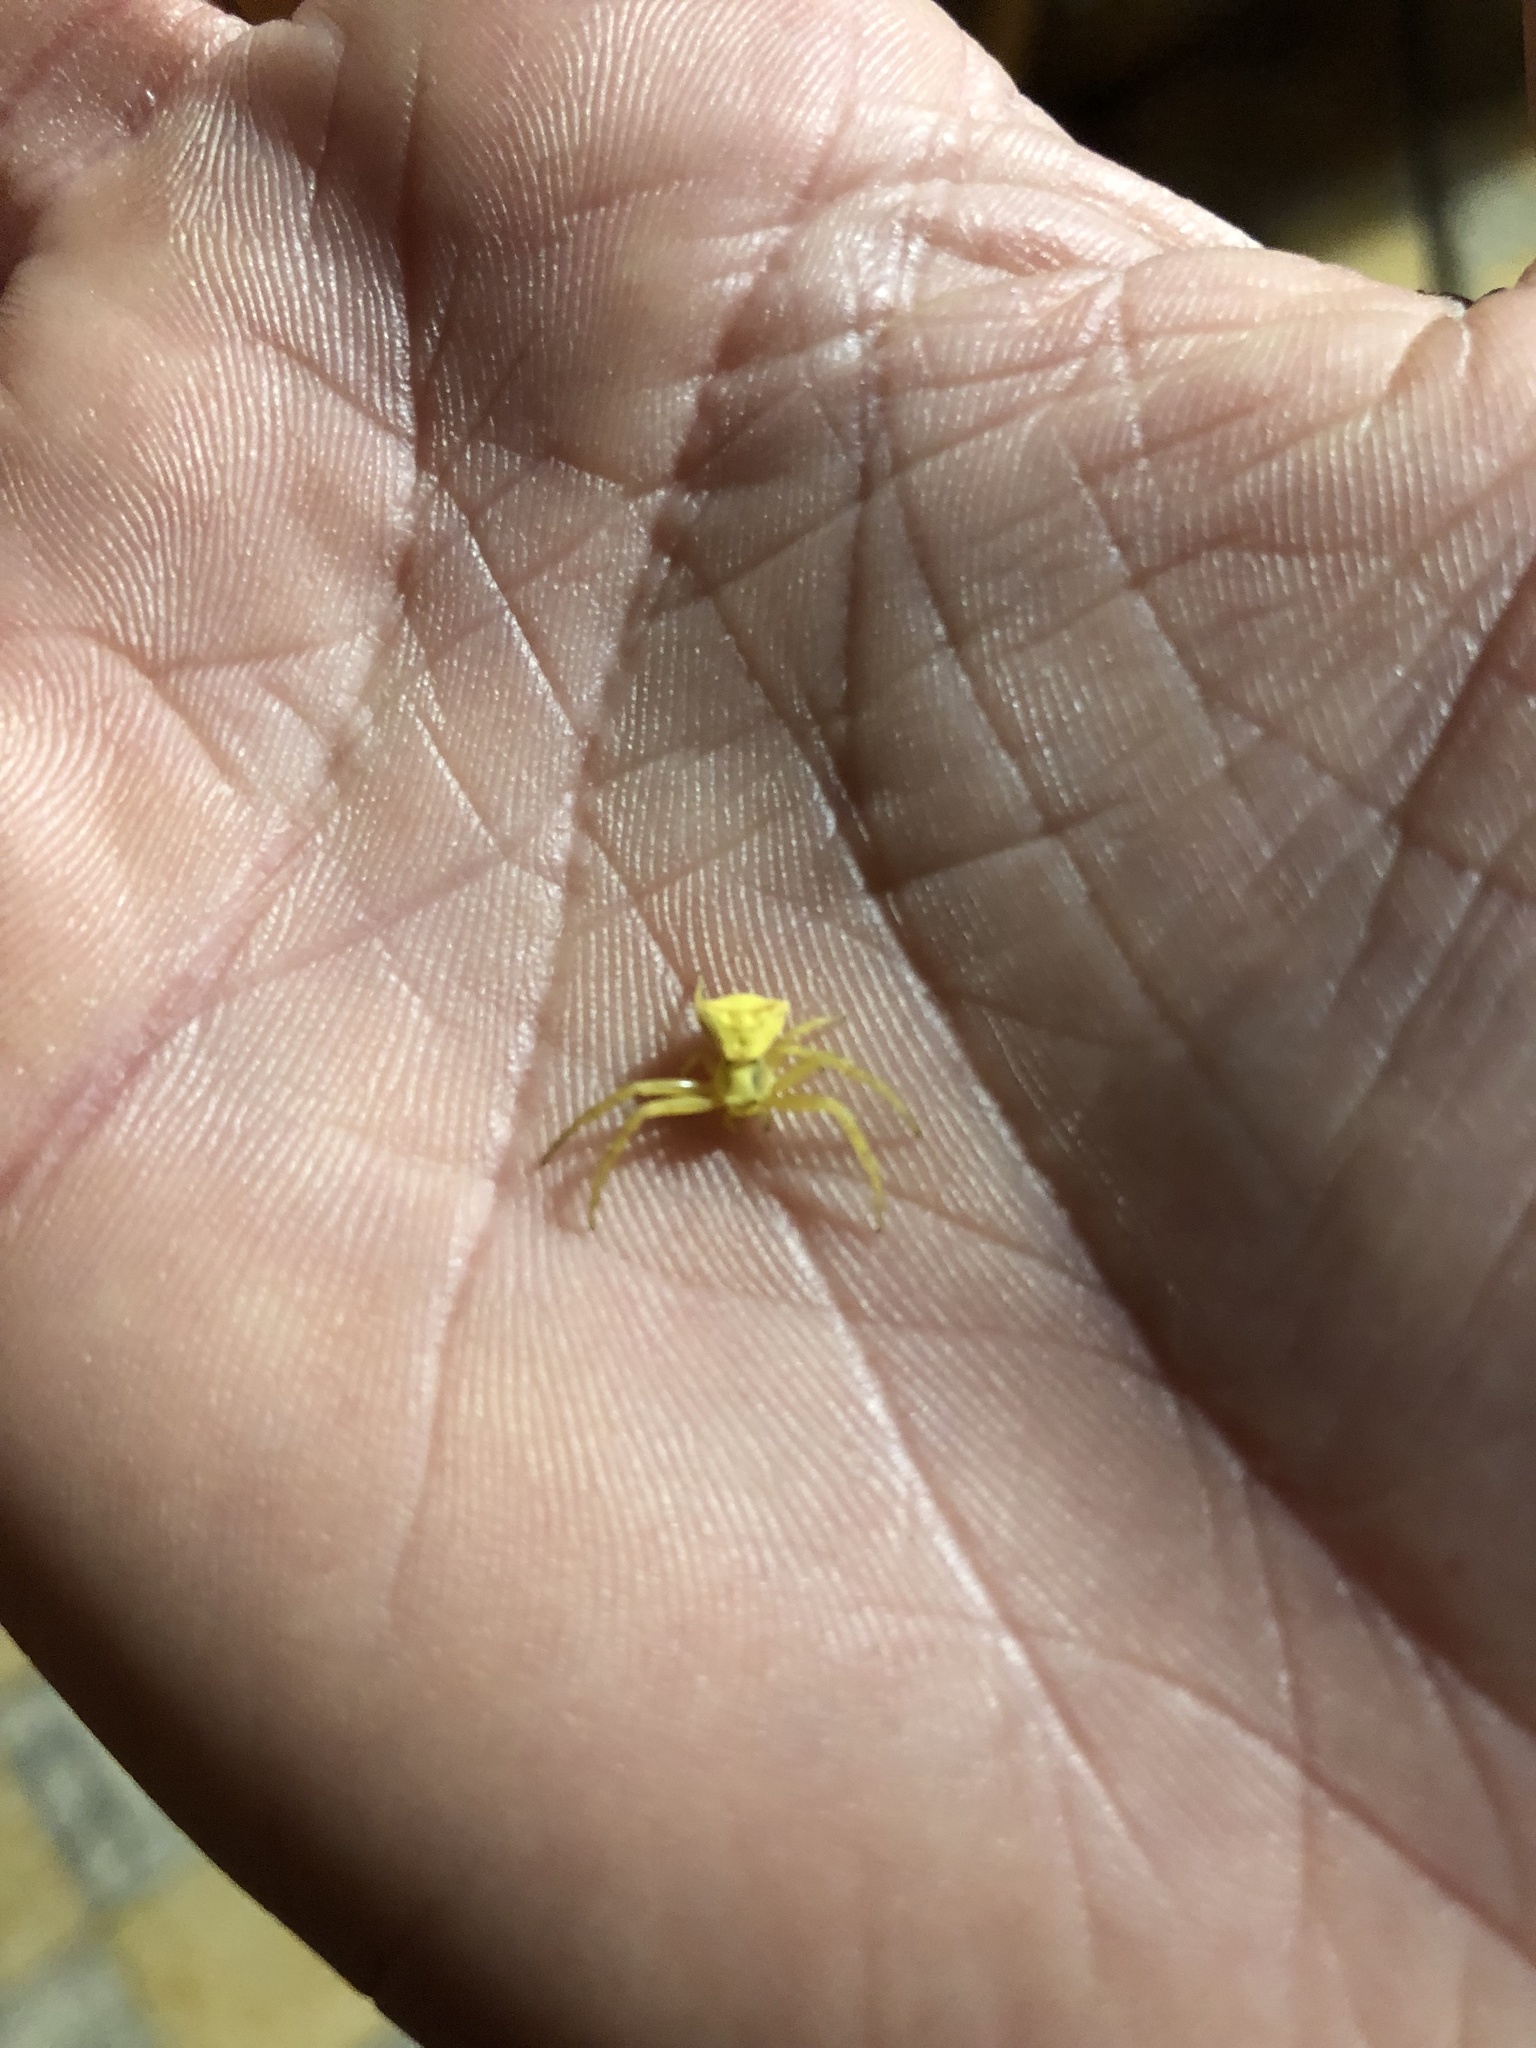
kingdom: Animalia
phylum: Arthropoda
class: Arachnida
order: Araneae
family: Thomisidae
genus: Thomisus
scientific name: Thomisus onustus
